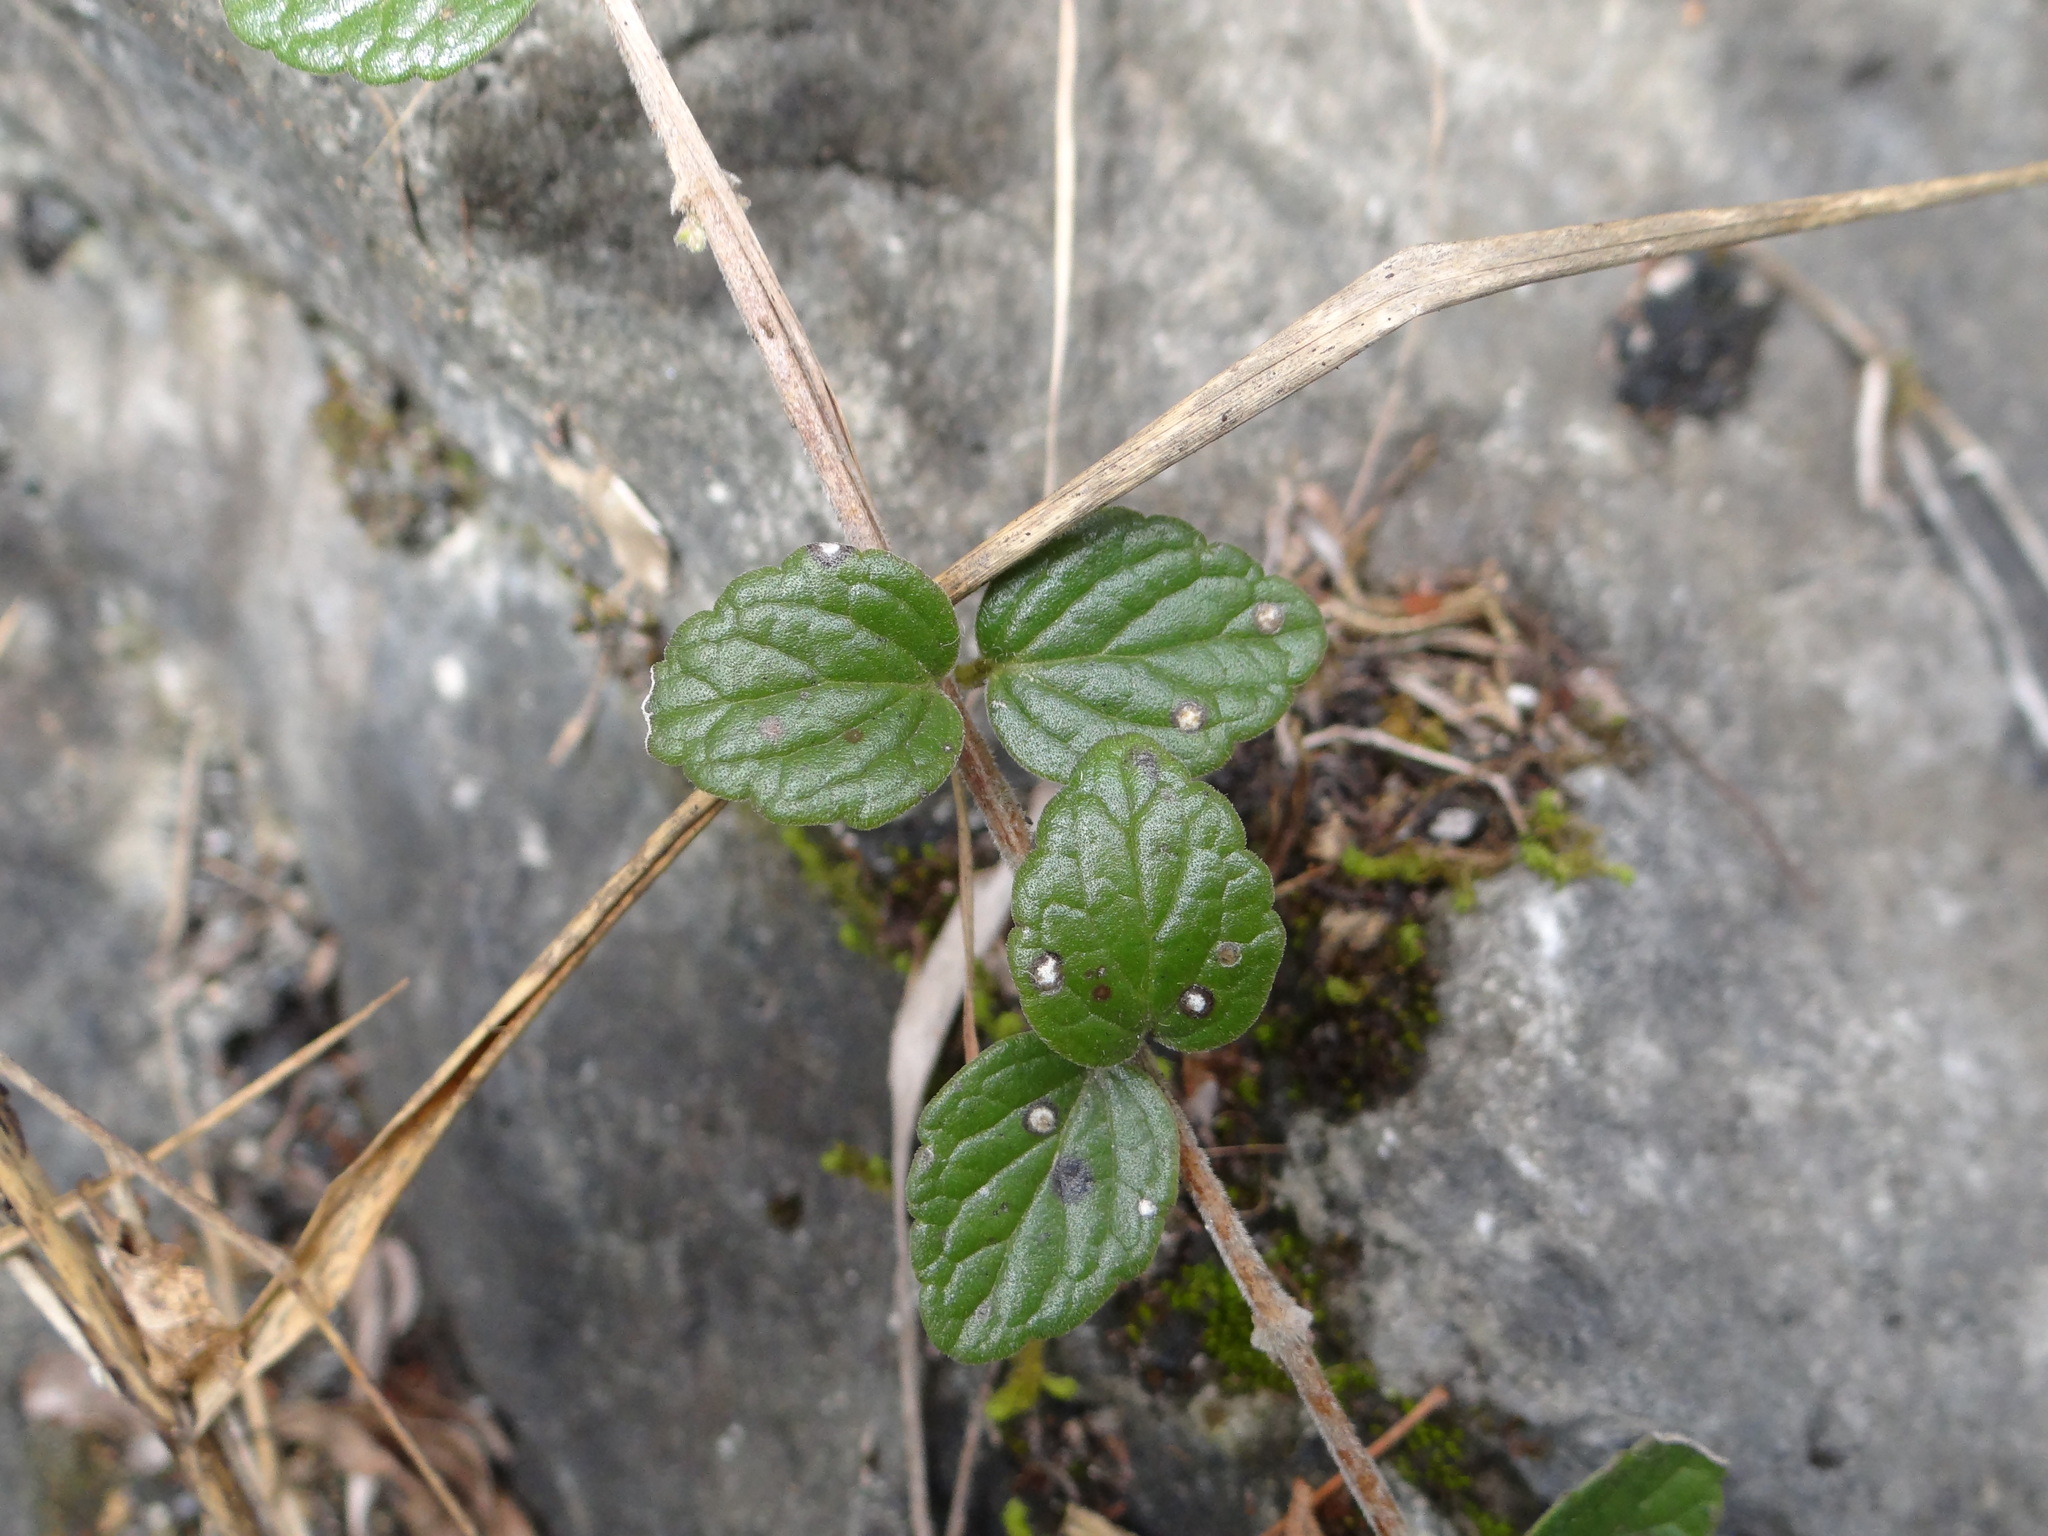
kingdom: Plantae
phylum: Tracheophyta
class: Magnoliopsida
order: Lamiales
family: Lamiaceae
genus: Scutellaria
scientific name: Scutellaria indica
